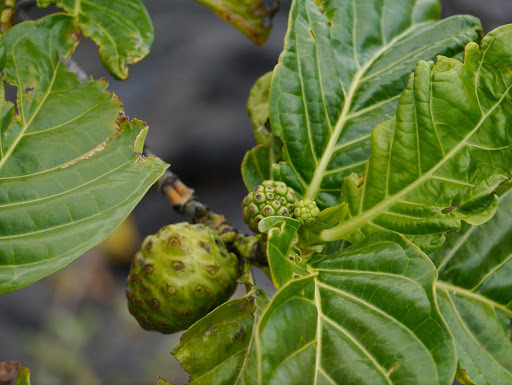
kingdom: Plantae
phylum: Tracheophyta
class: Magnoliopsida
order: Gentianales
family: Rubiaceae
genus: Morinda
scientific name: Morinda citrifolia
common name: Indian-mulberry
